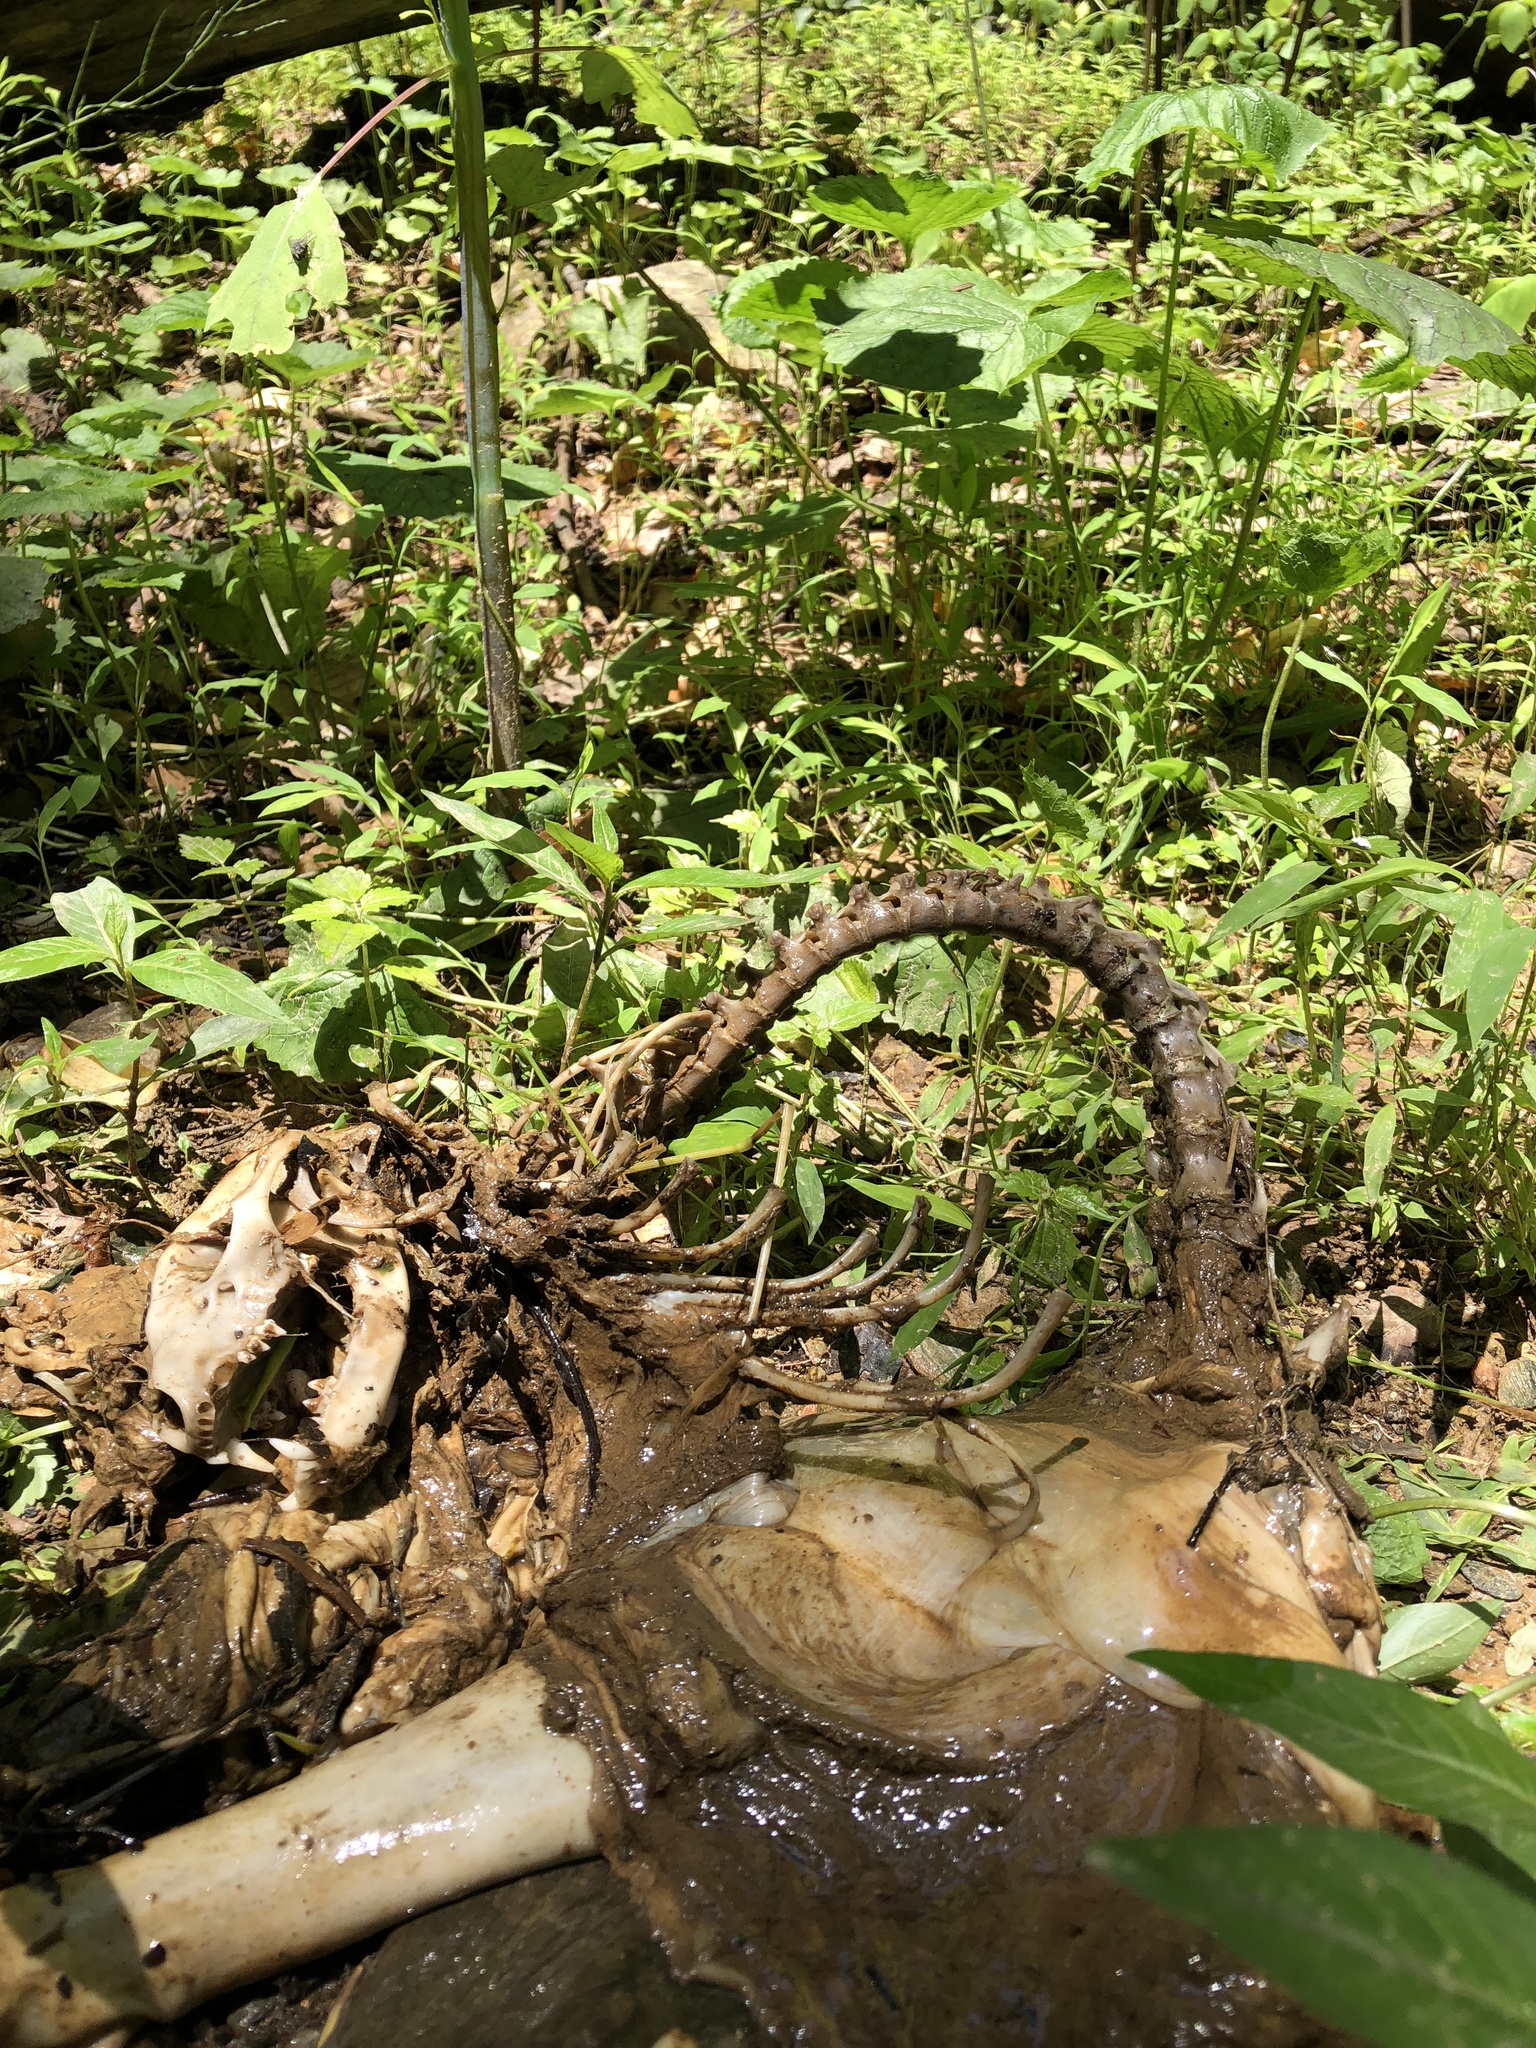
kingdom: Animalia
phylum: Chordata
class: Mammalia
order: Carnivora
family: Procyonidae
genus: Procyon
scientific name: Procyon lotor
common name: Raccoon
